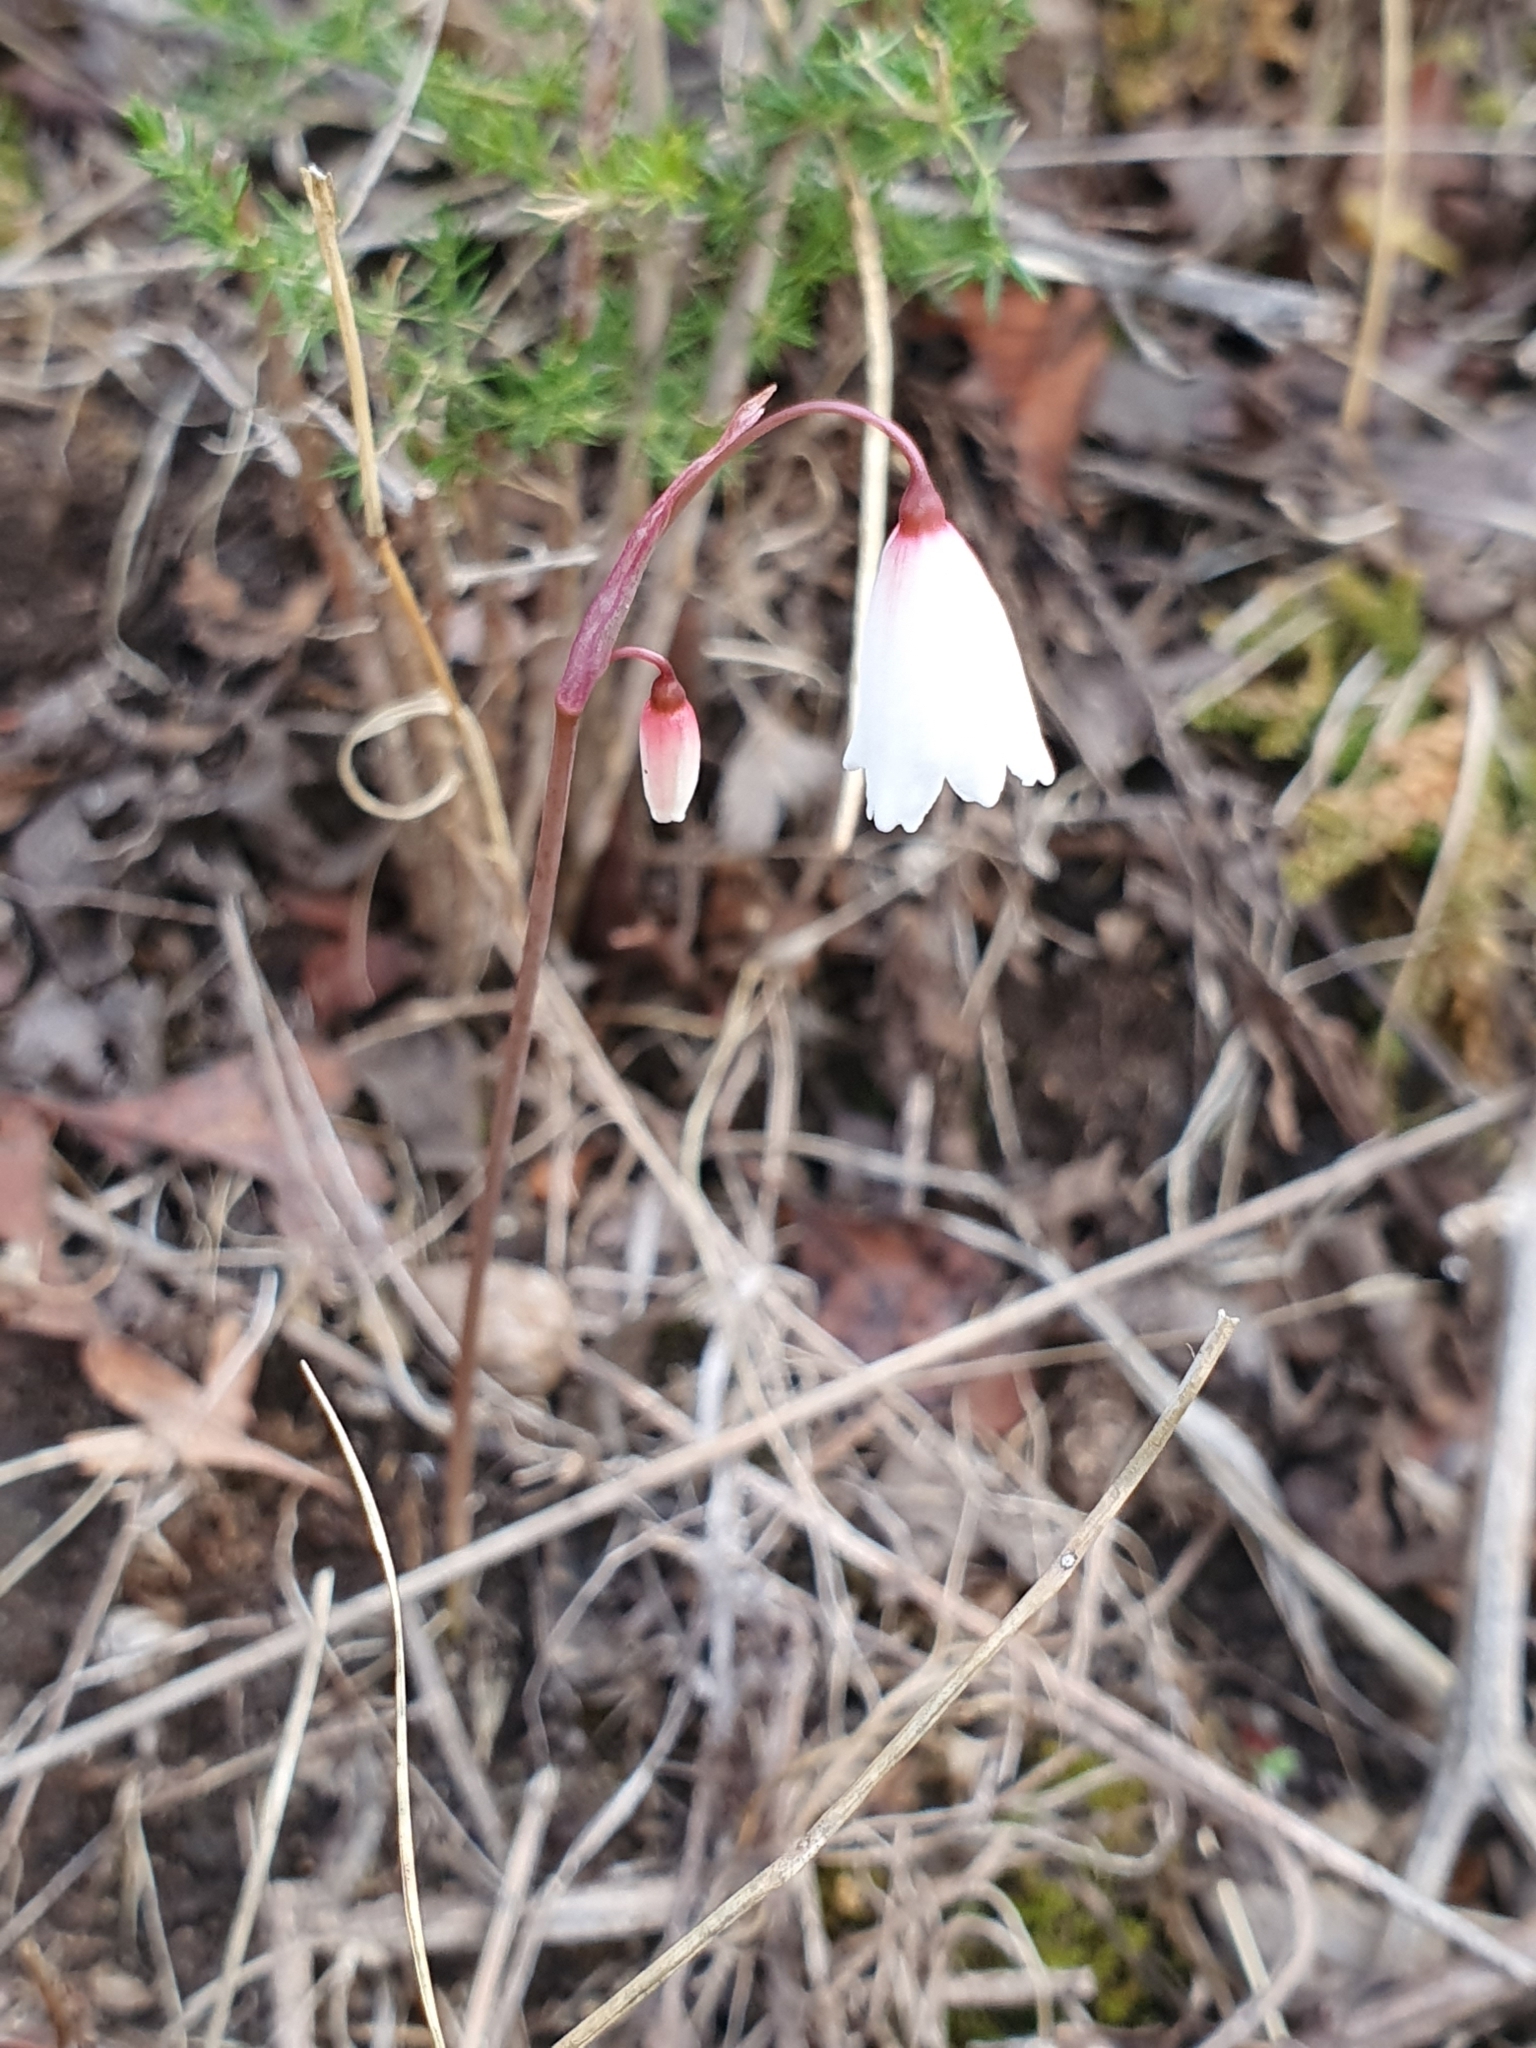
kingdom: Plantae
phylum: Tracheophyta
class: Liliopsida
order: Asparagales
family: Amaryllidaceae
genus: Acis
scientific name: Acis autumnalis
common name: Autumn snowflake
